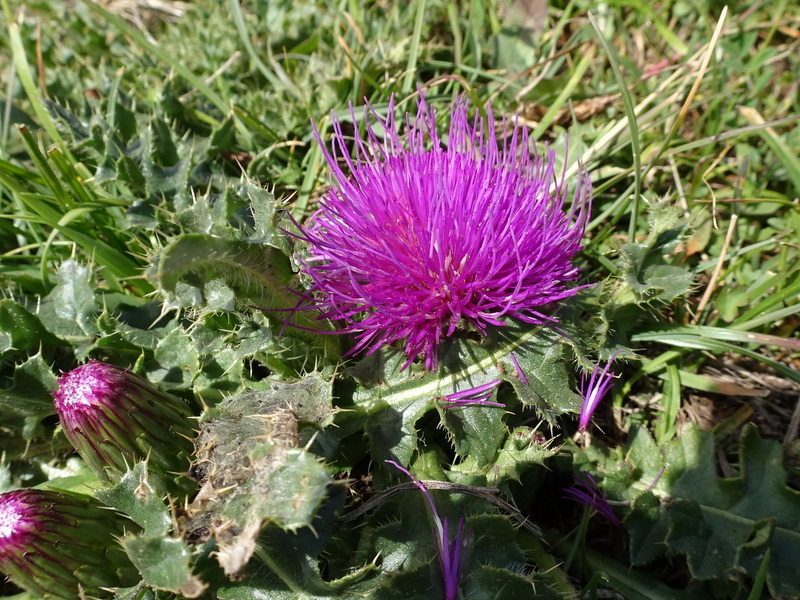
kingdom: Plantae
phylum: Tracheophyta
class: Magnoliopsida
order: Asterales
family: Asteraceae
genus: Cirsium
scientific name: Cirsium acaulon
